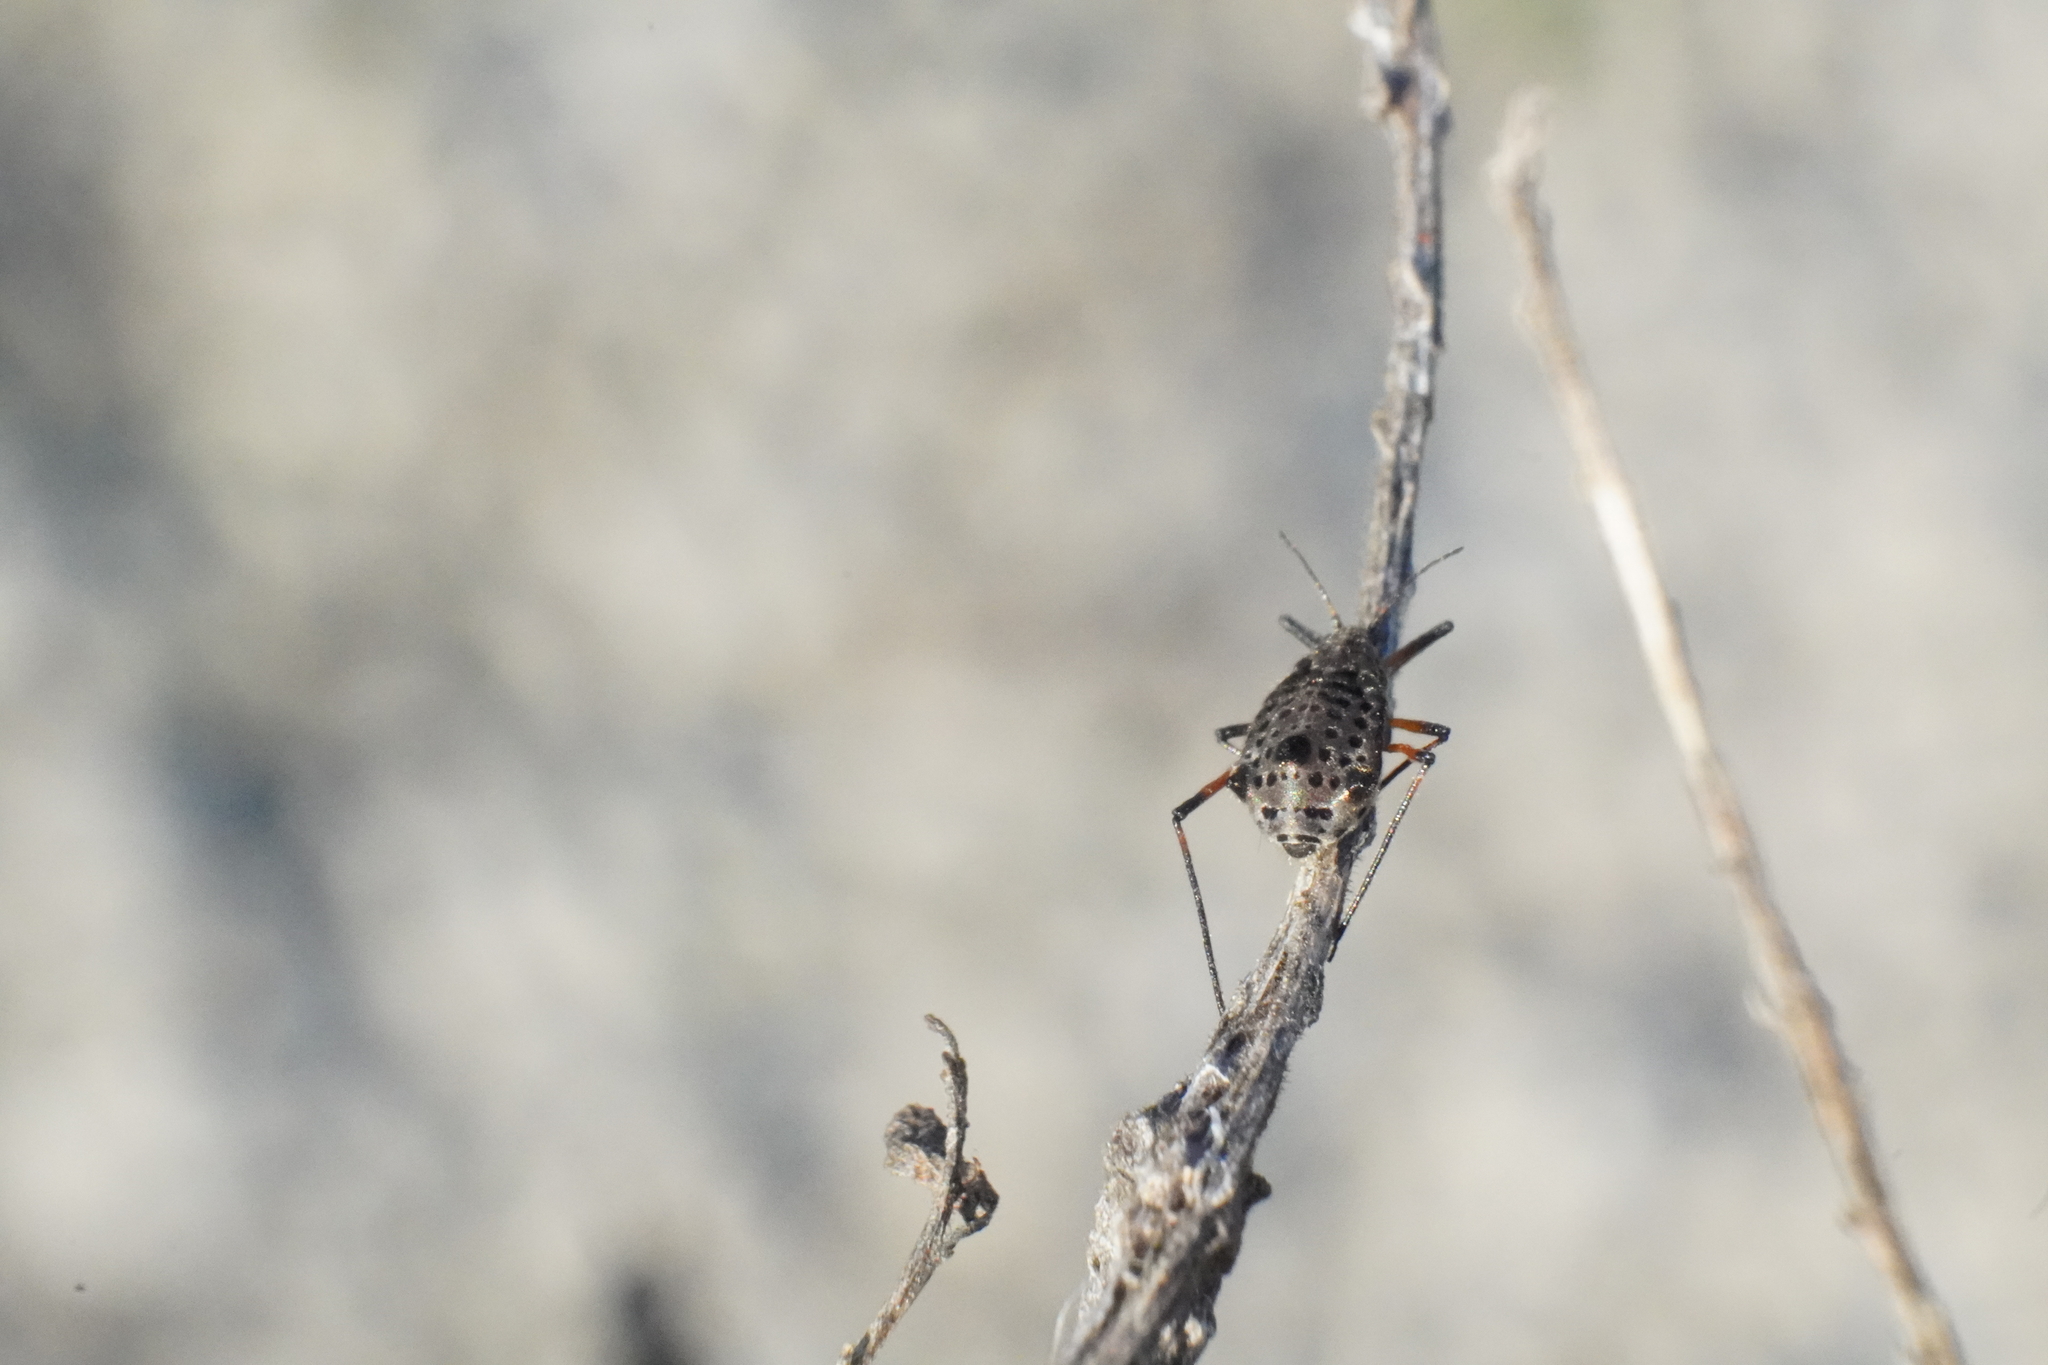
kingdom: Animalia
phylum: Arthropoda
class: Insecta
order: Hemiptera
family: Aphididae
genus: Tuberolachnus
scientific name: Tuberolachnus salignus
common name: Giant willow aphid
